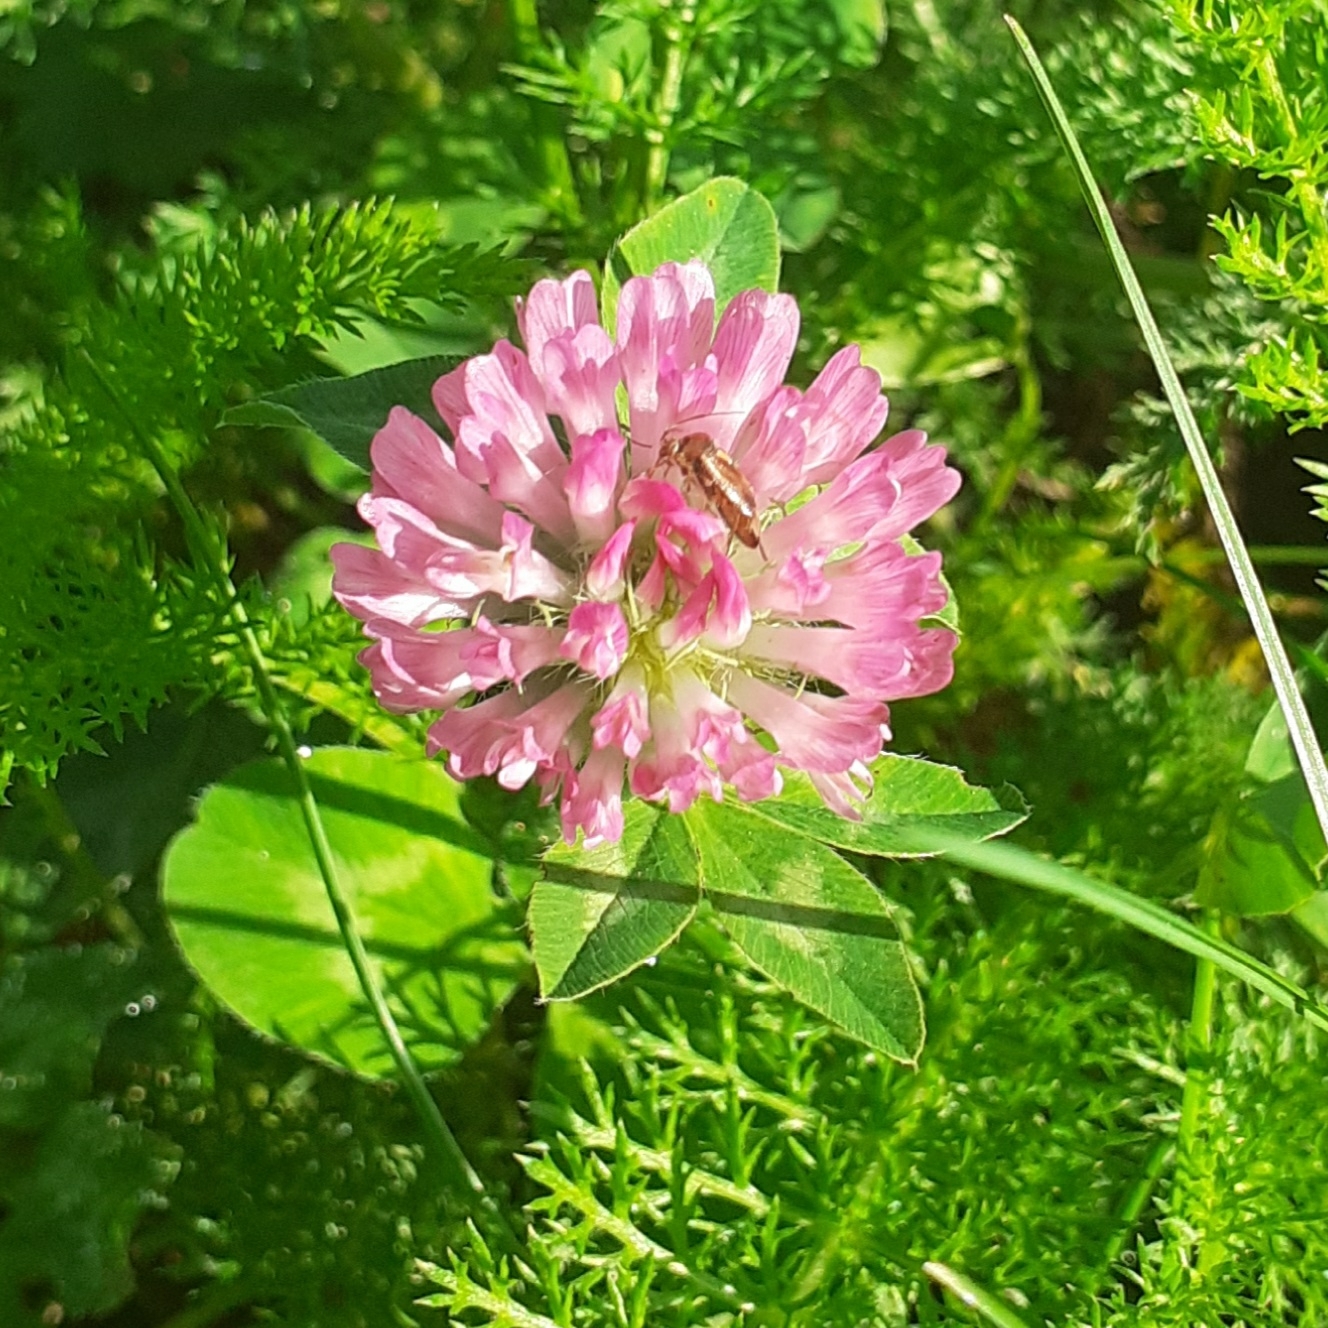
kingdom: Plantae
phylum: Tracheophyta
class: Magnoliopsida
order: Fabales
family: Fabaceae
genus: Trifolium
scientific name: Trifolium pratense
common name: Red clover
